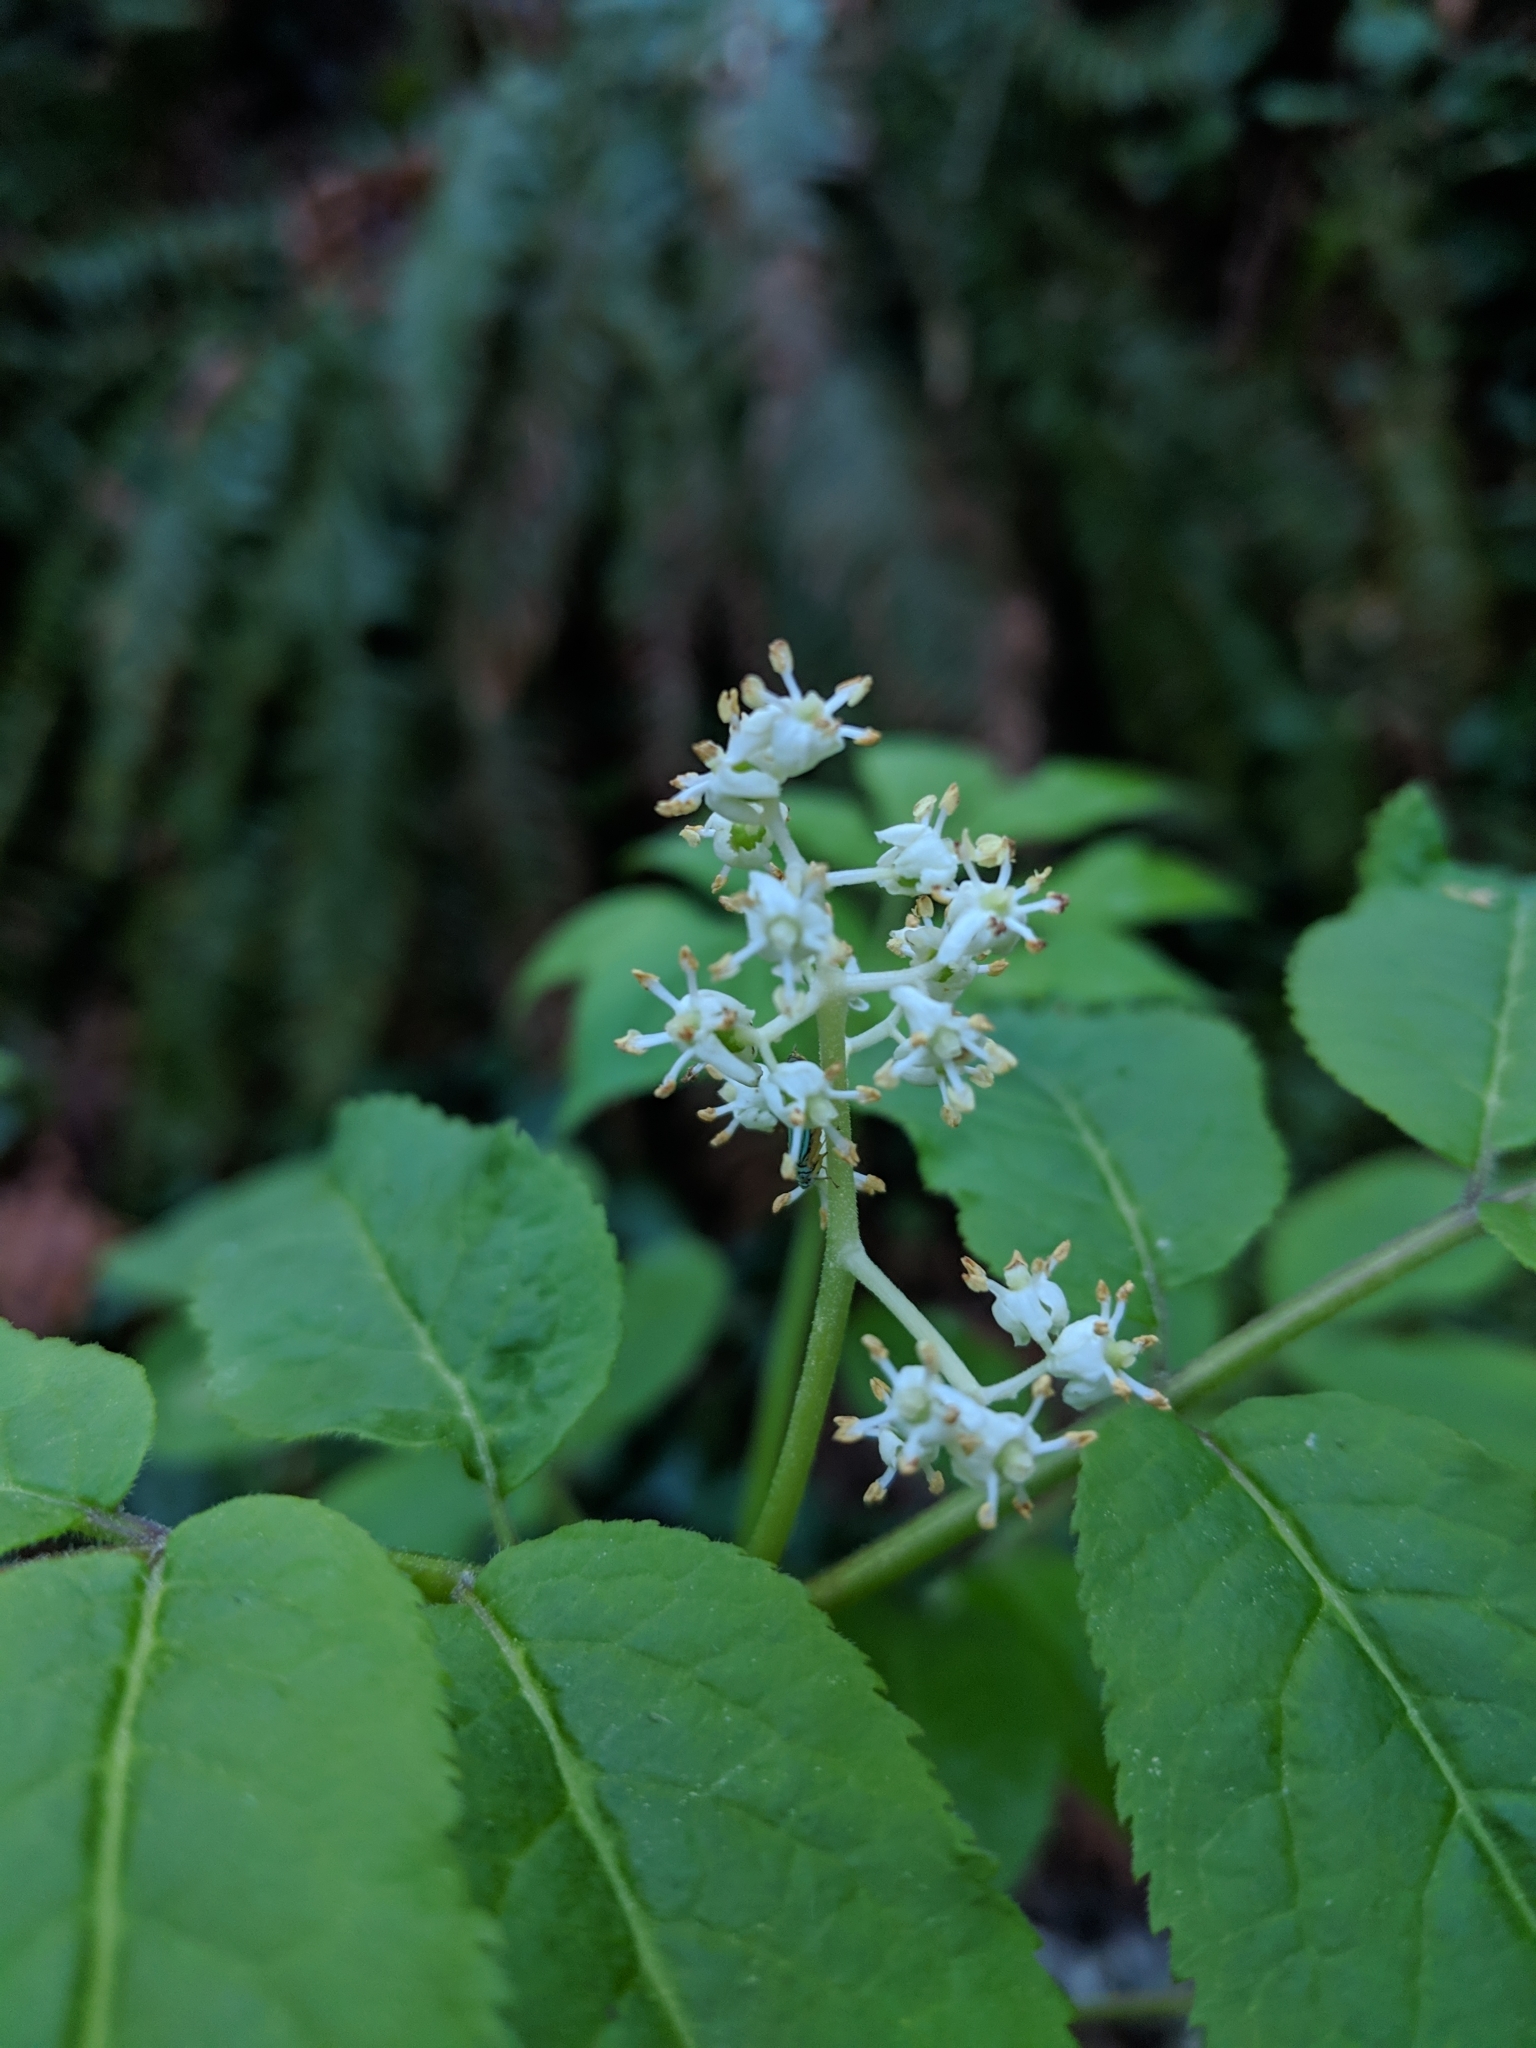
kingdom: Plantae
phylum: Tracheophyta
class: Magnoliopsida
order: Dipsacales
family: Viburnaceae
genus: Sambucus
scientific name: Sambucus racemosa
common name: Red-berried elder
